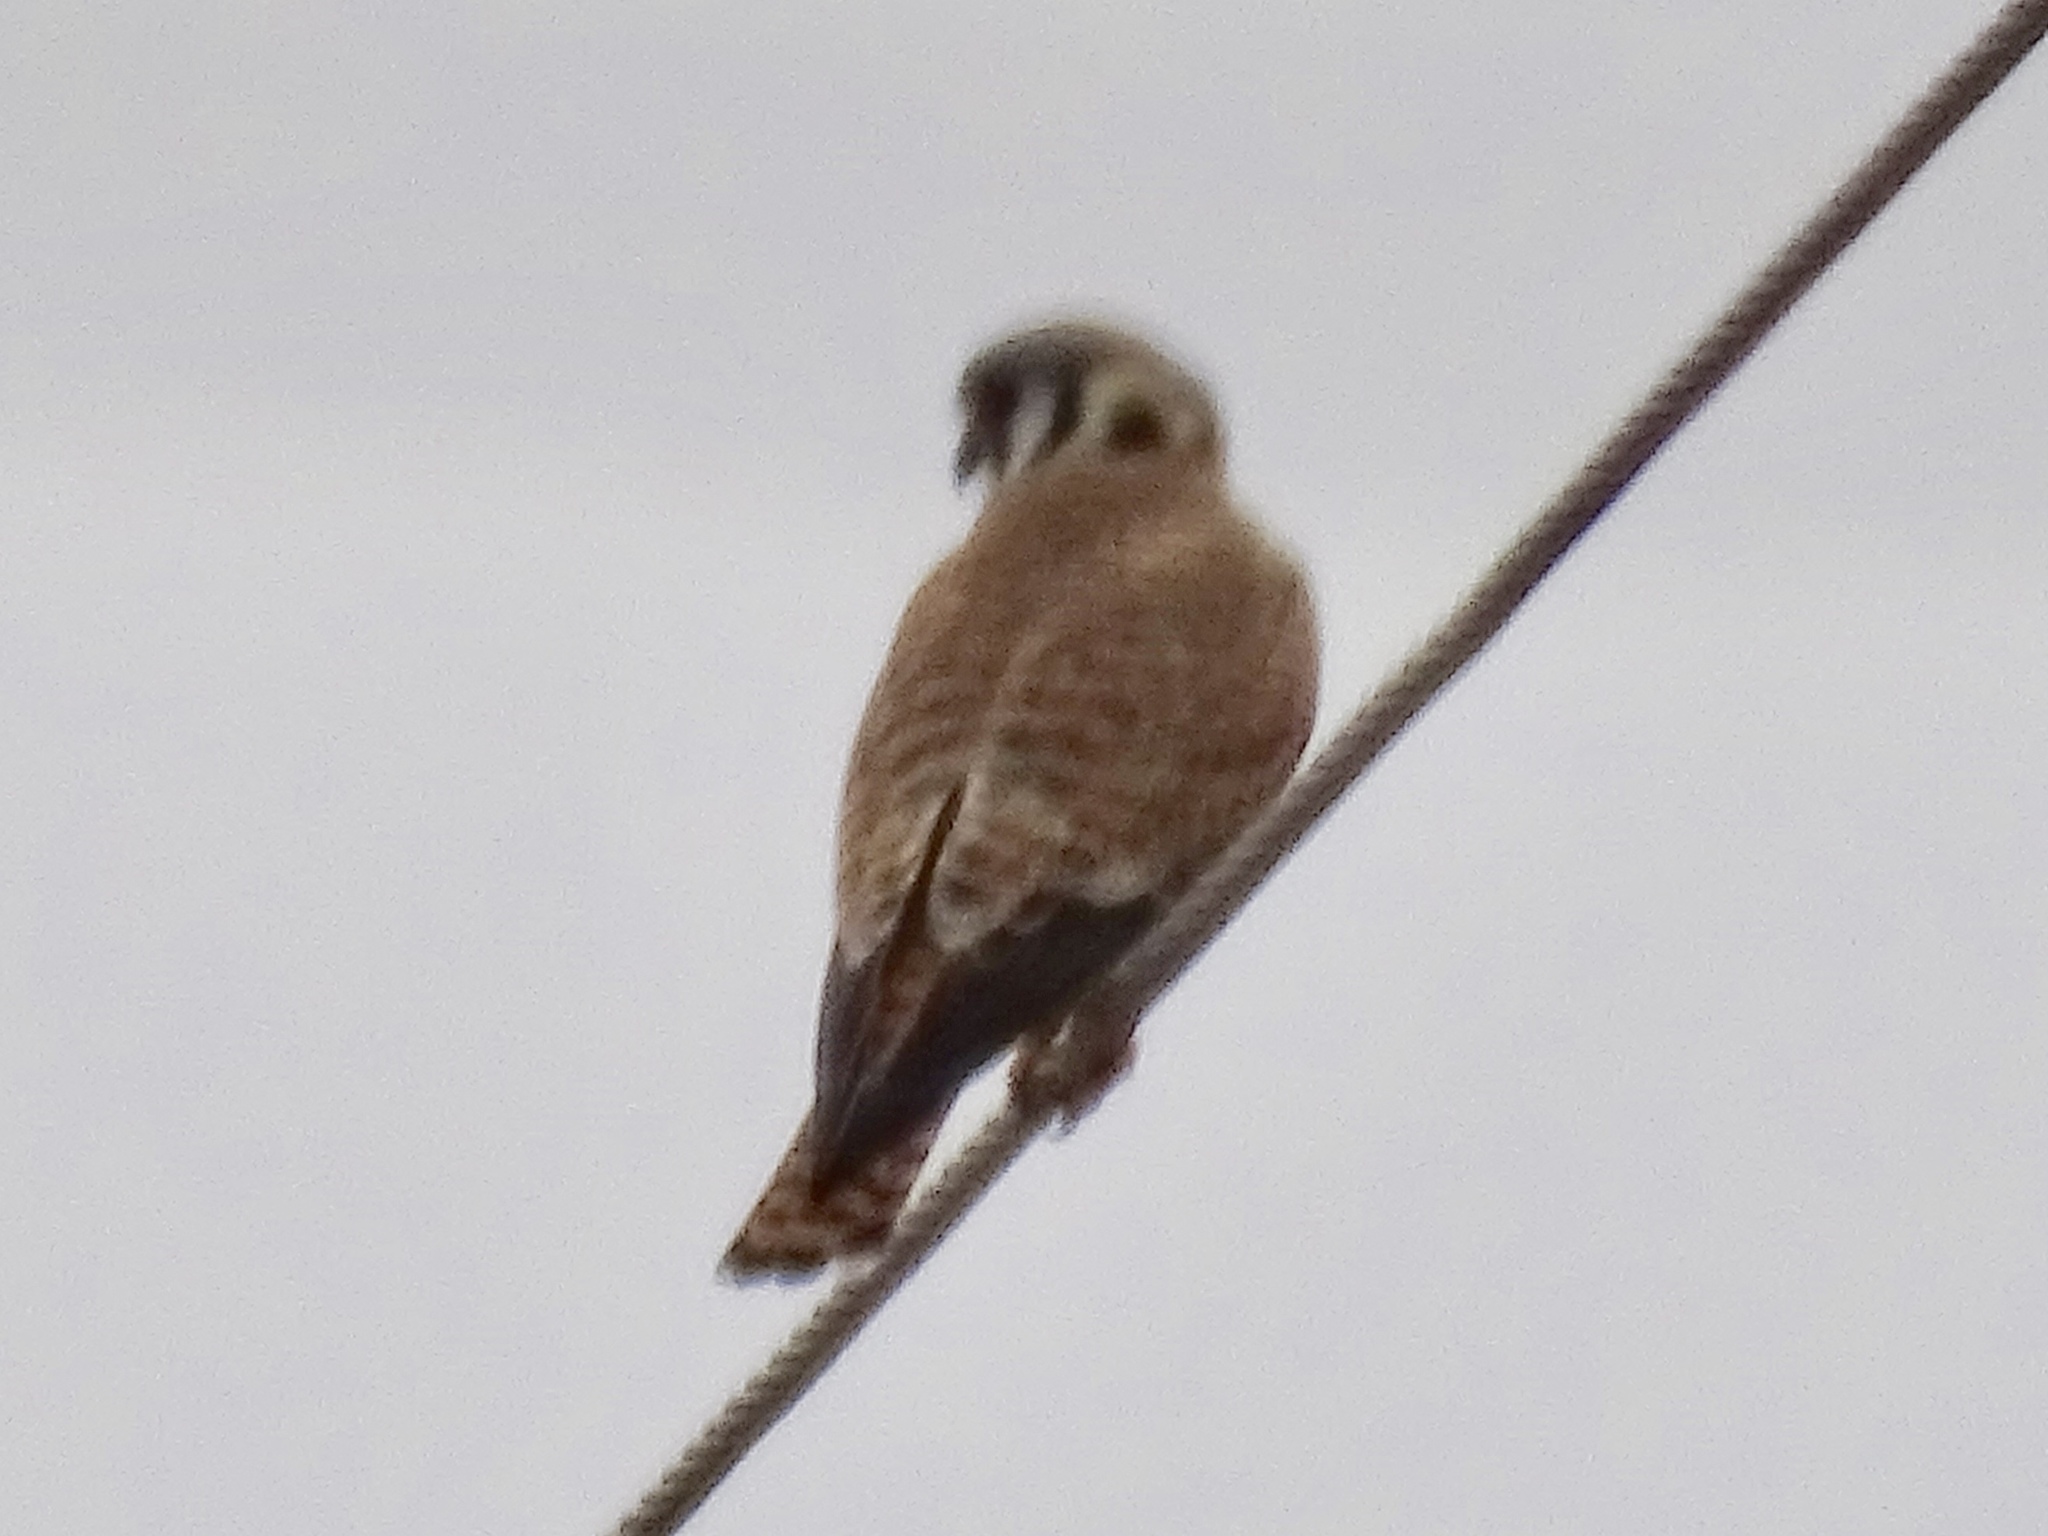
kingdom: Animalia
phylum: Chordata
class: Aves
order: Falconiformes
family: Falconidae
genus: Falco
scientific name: Falco sparverius
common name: American kestrel
